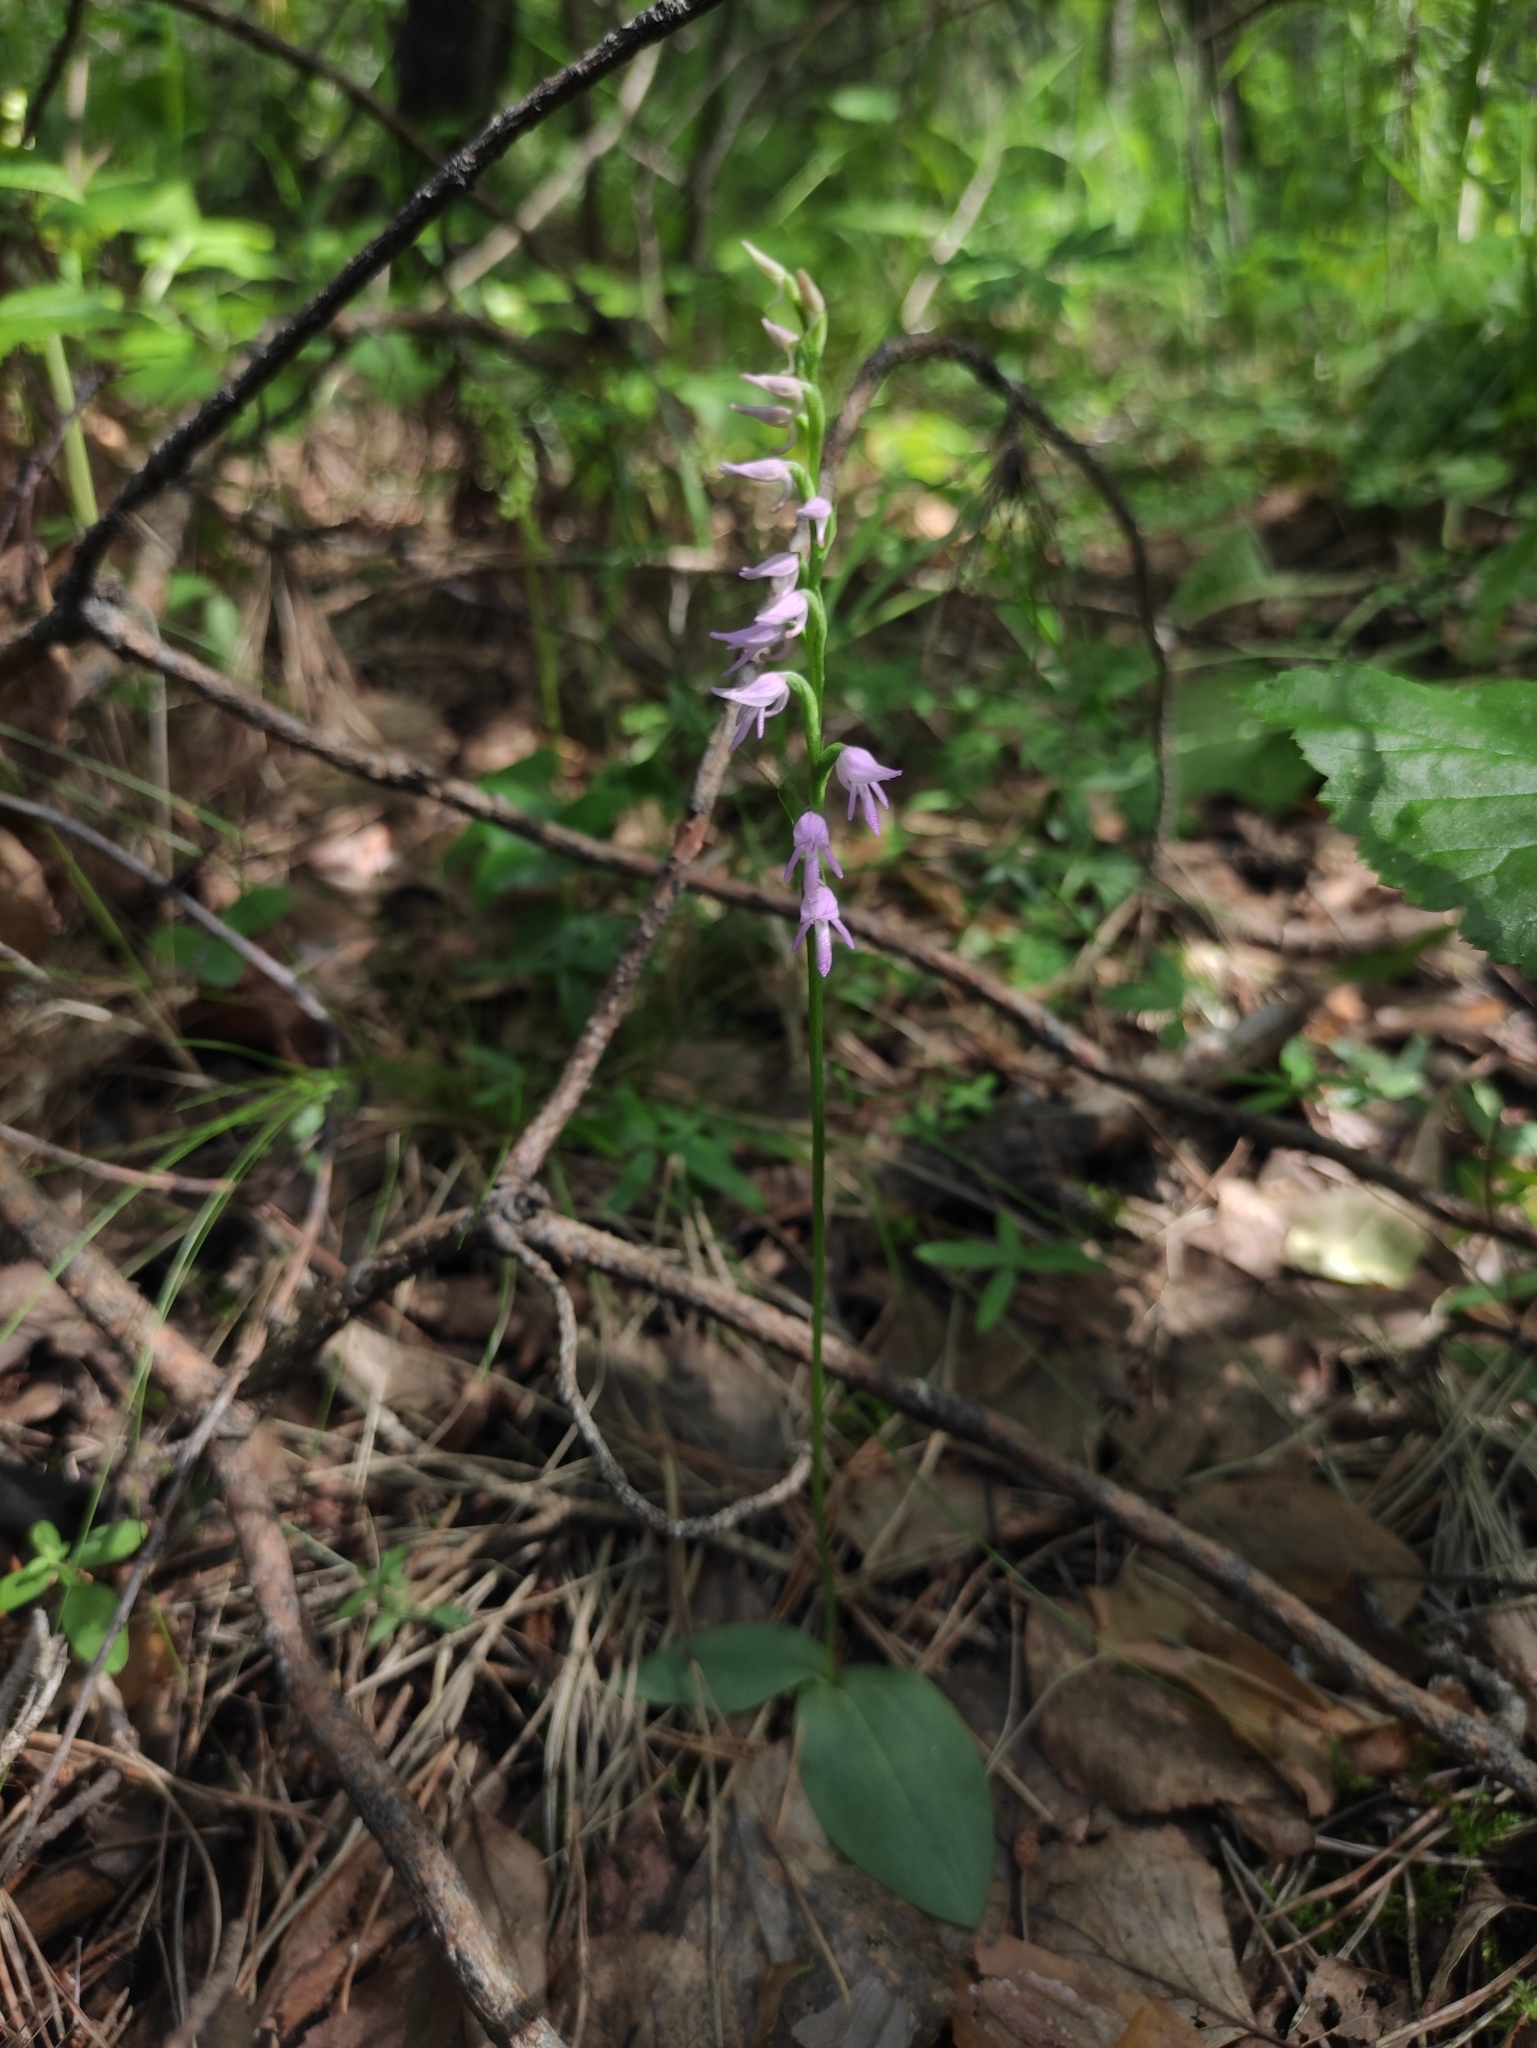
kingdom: Plantae
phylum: Tracheophyta
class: Liliopsida
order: Asparagales
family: Orchidaceae
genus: Hemipilia
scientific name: Hemipilia cucullata
